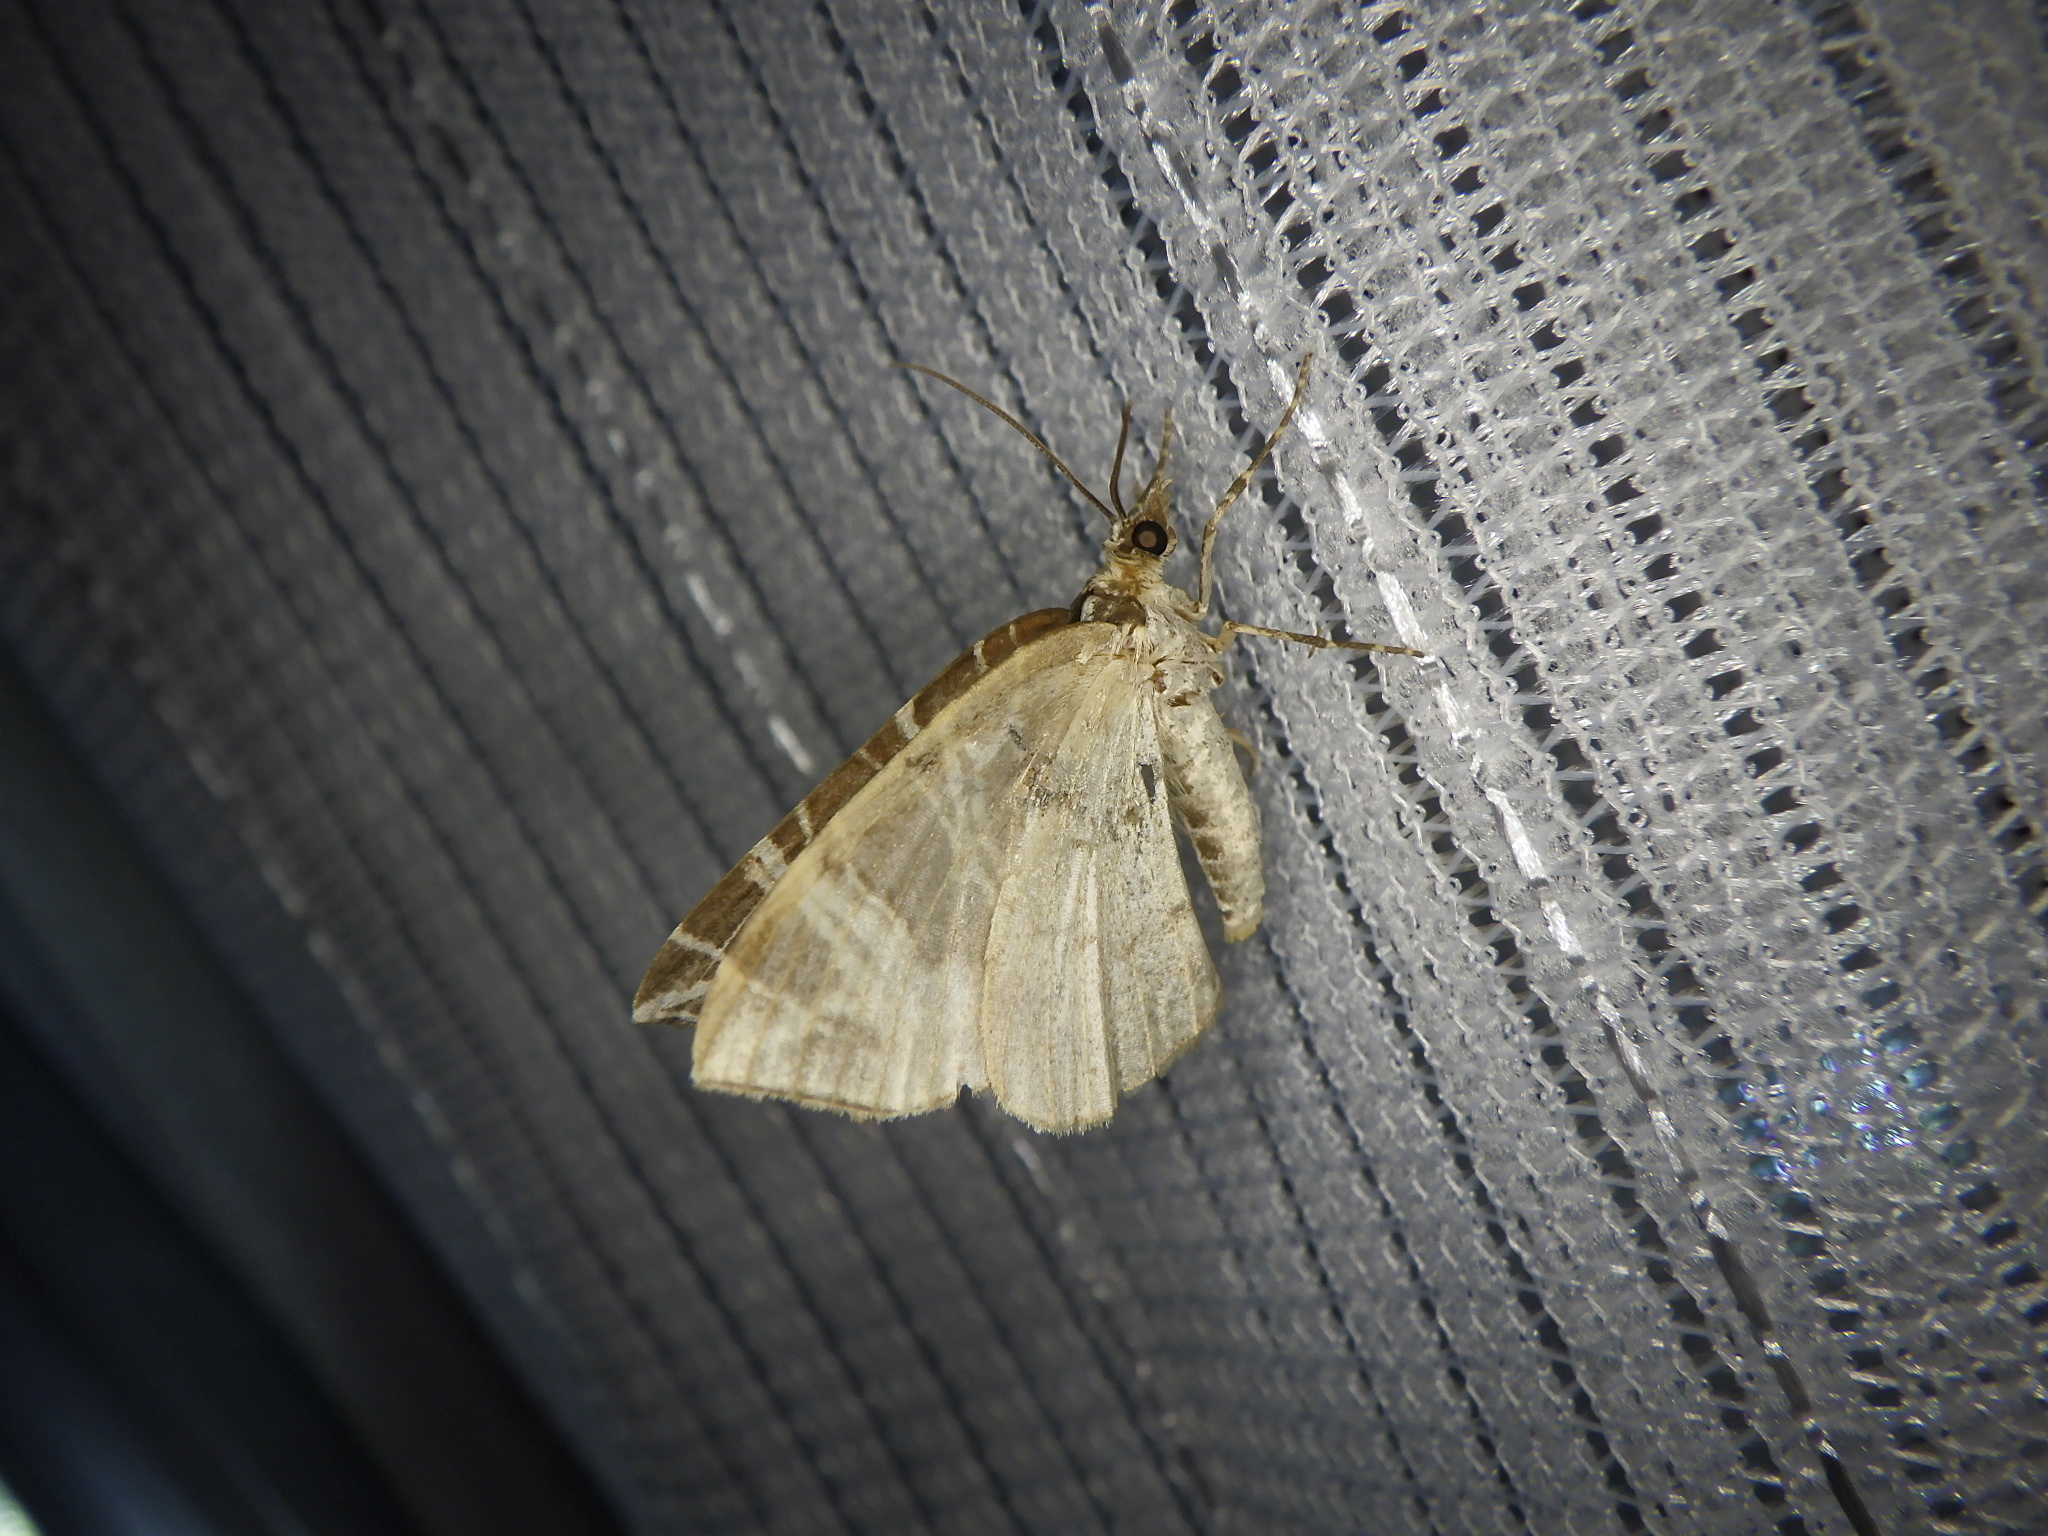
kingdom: Animalia
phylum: Arthropoda
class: Insecta
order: Lepidoptera
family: Geometridae
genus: Evecliptopera
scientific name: Evecliptopera illitata
